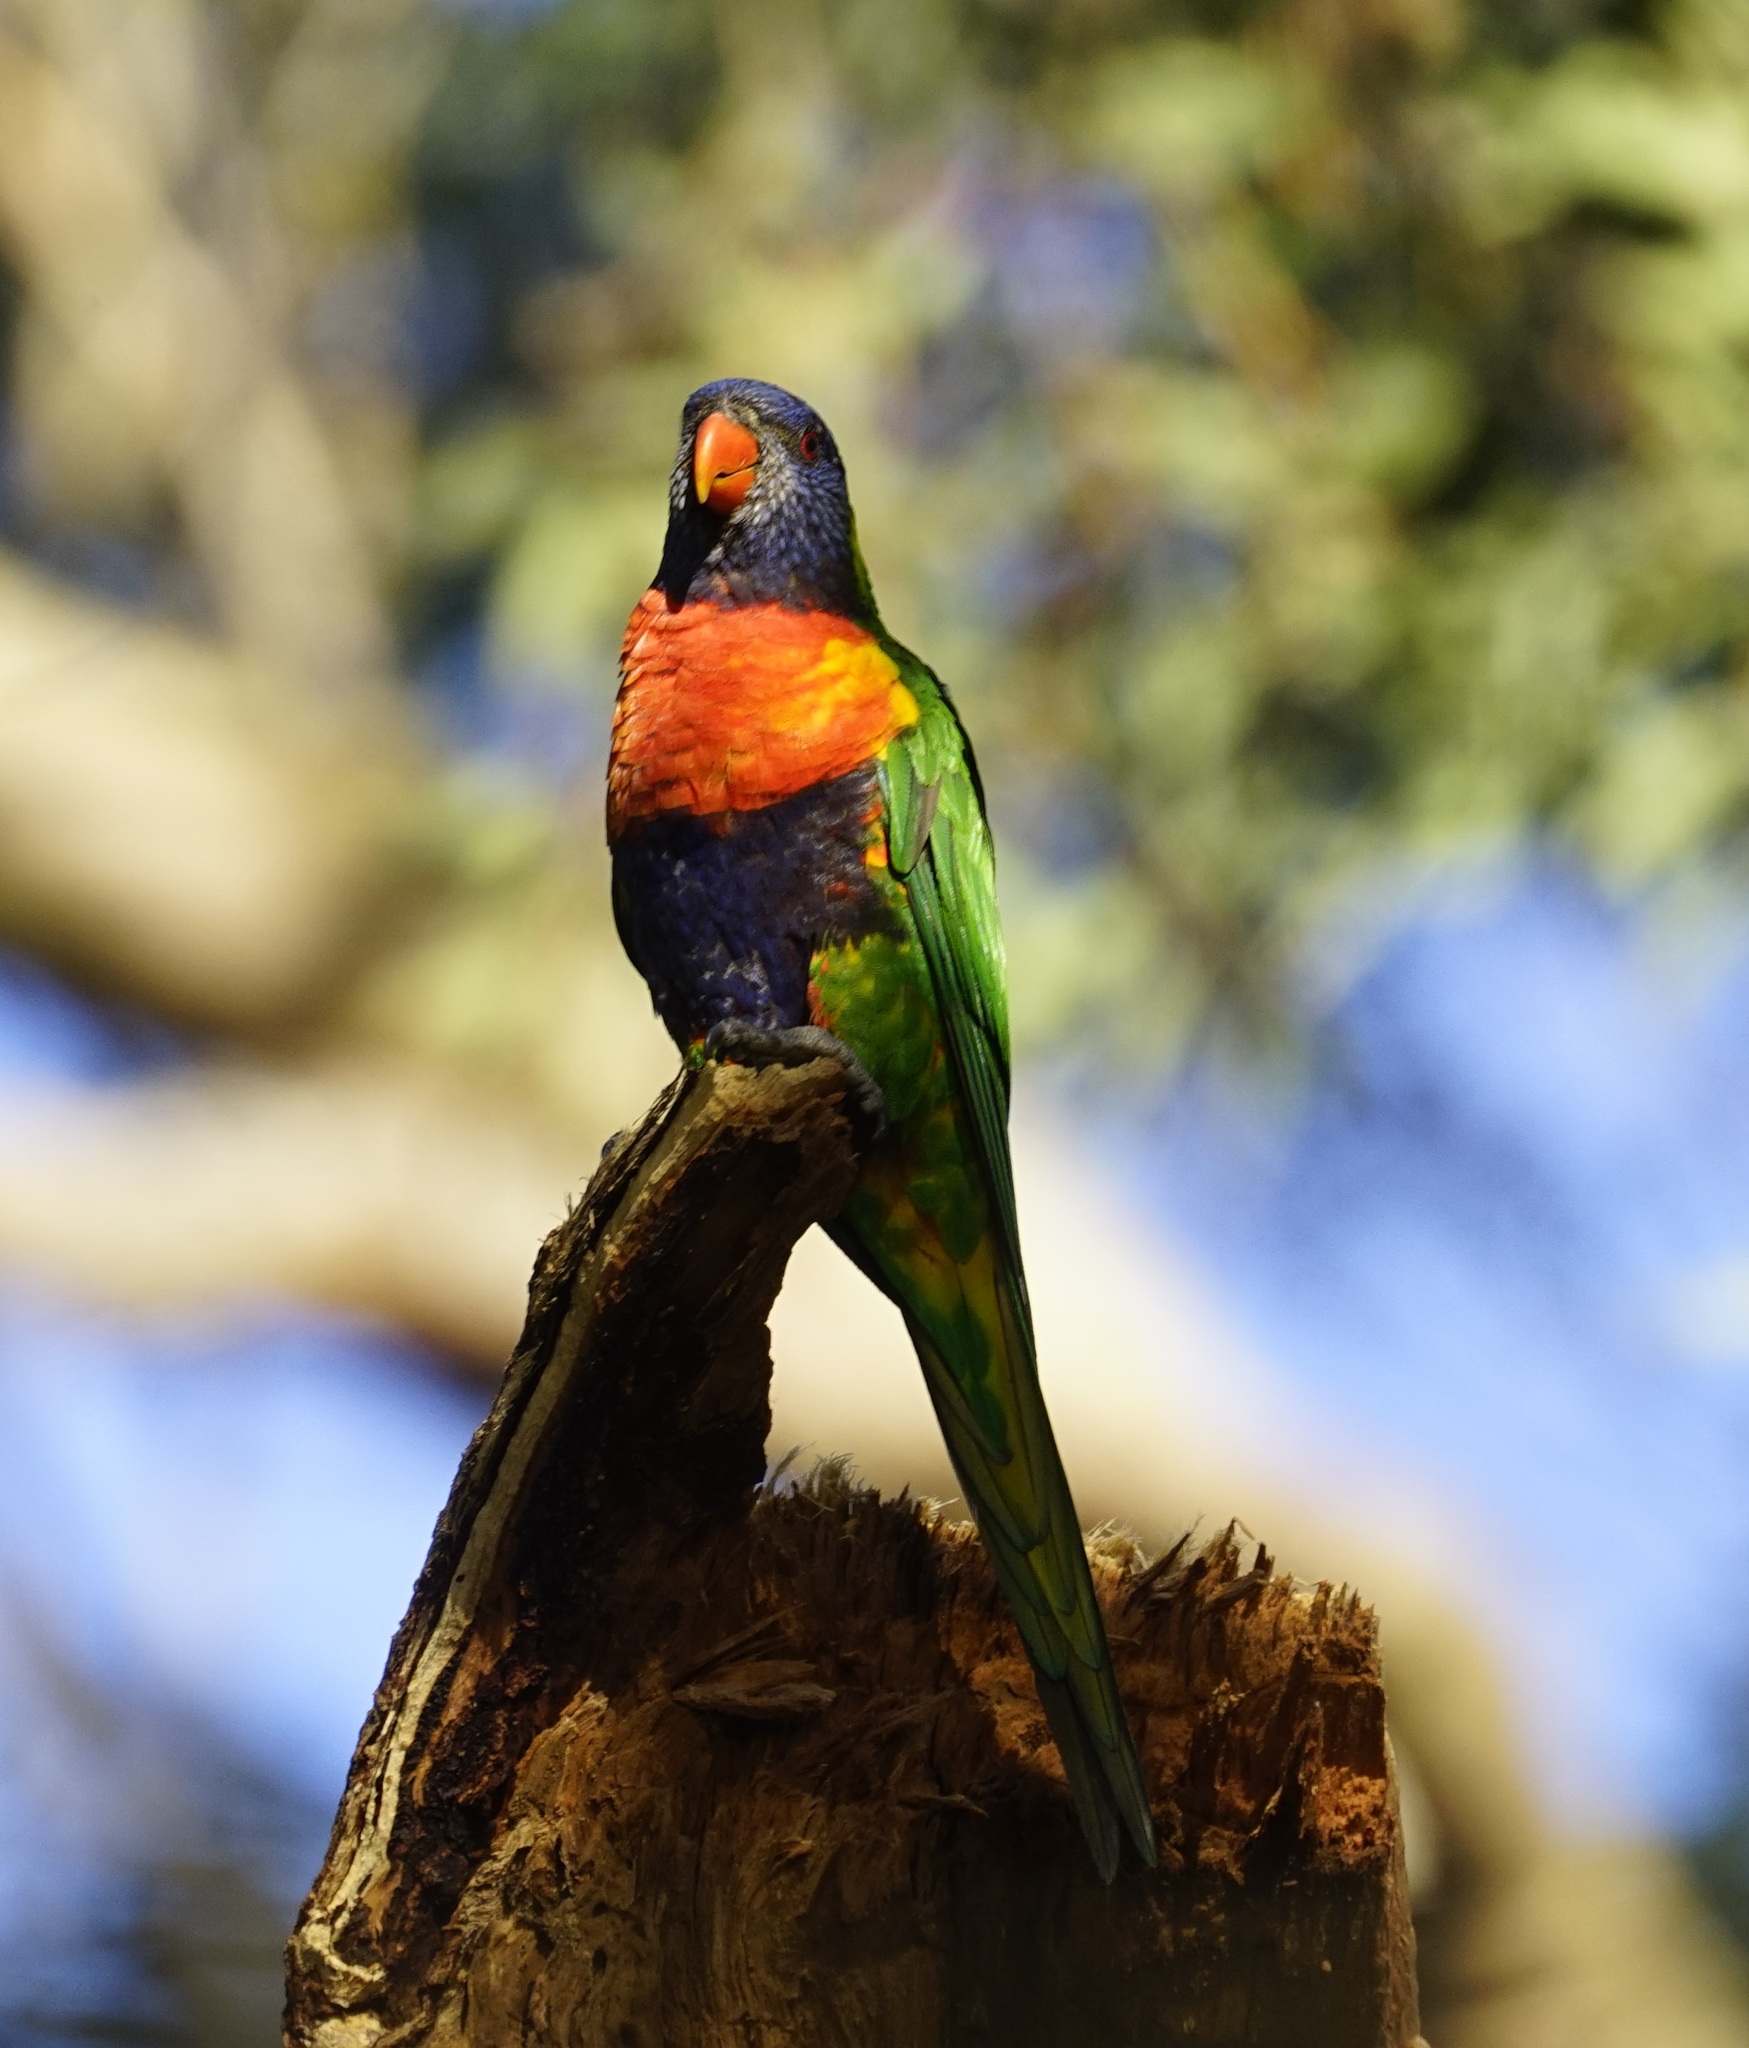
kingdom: Animalia
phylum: Chordata
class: Aves
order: Psittaciformes
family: Psittacidae
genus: Trichoglossus
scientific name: Trichoglossus haematodus
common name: Coconut lorikeet
